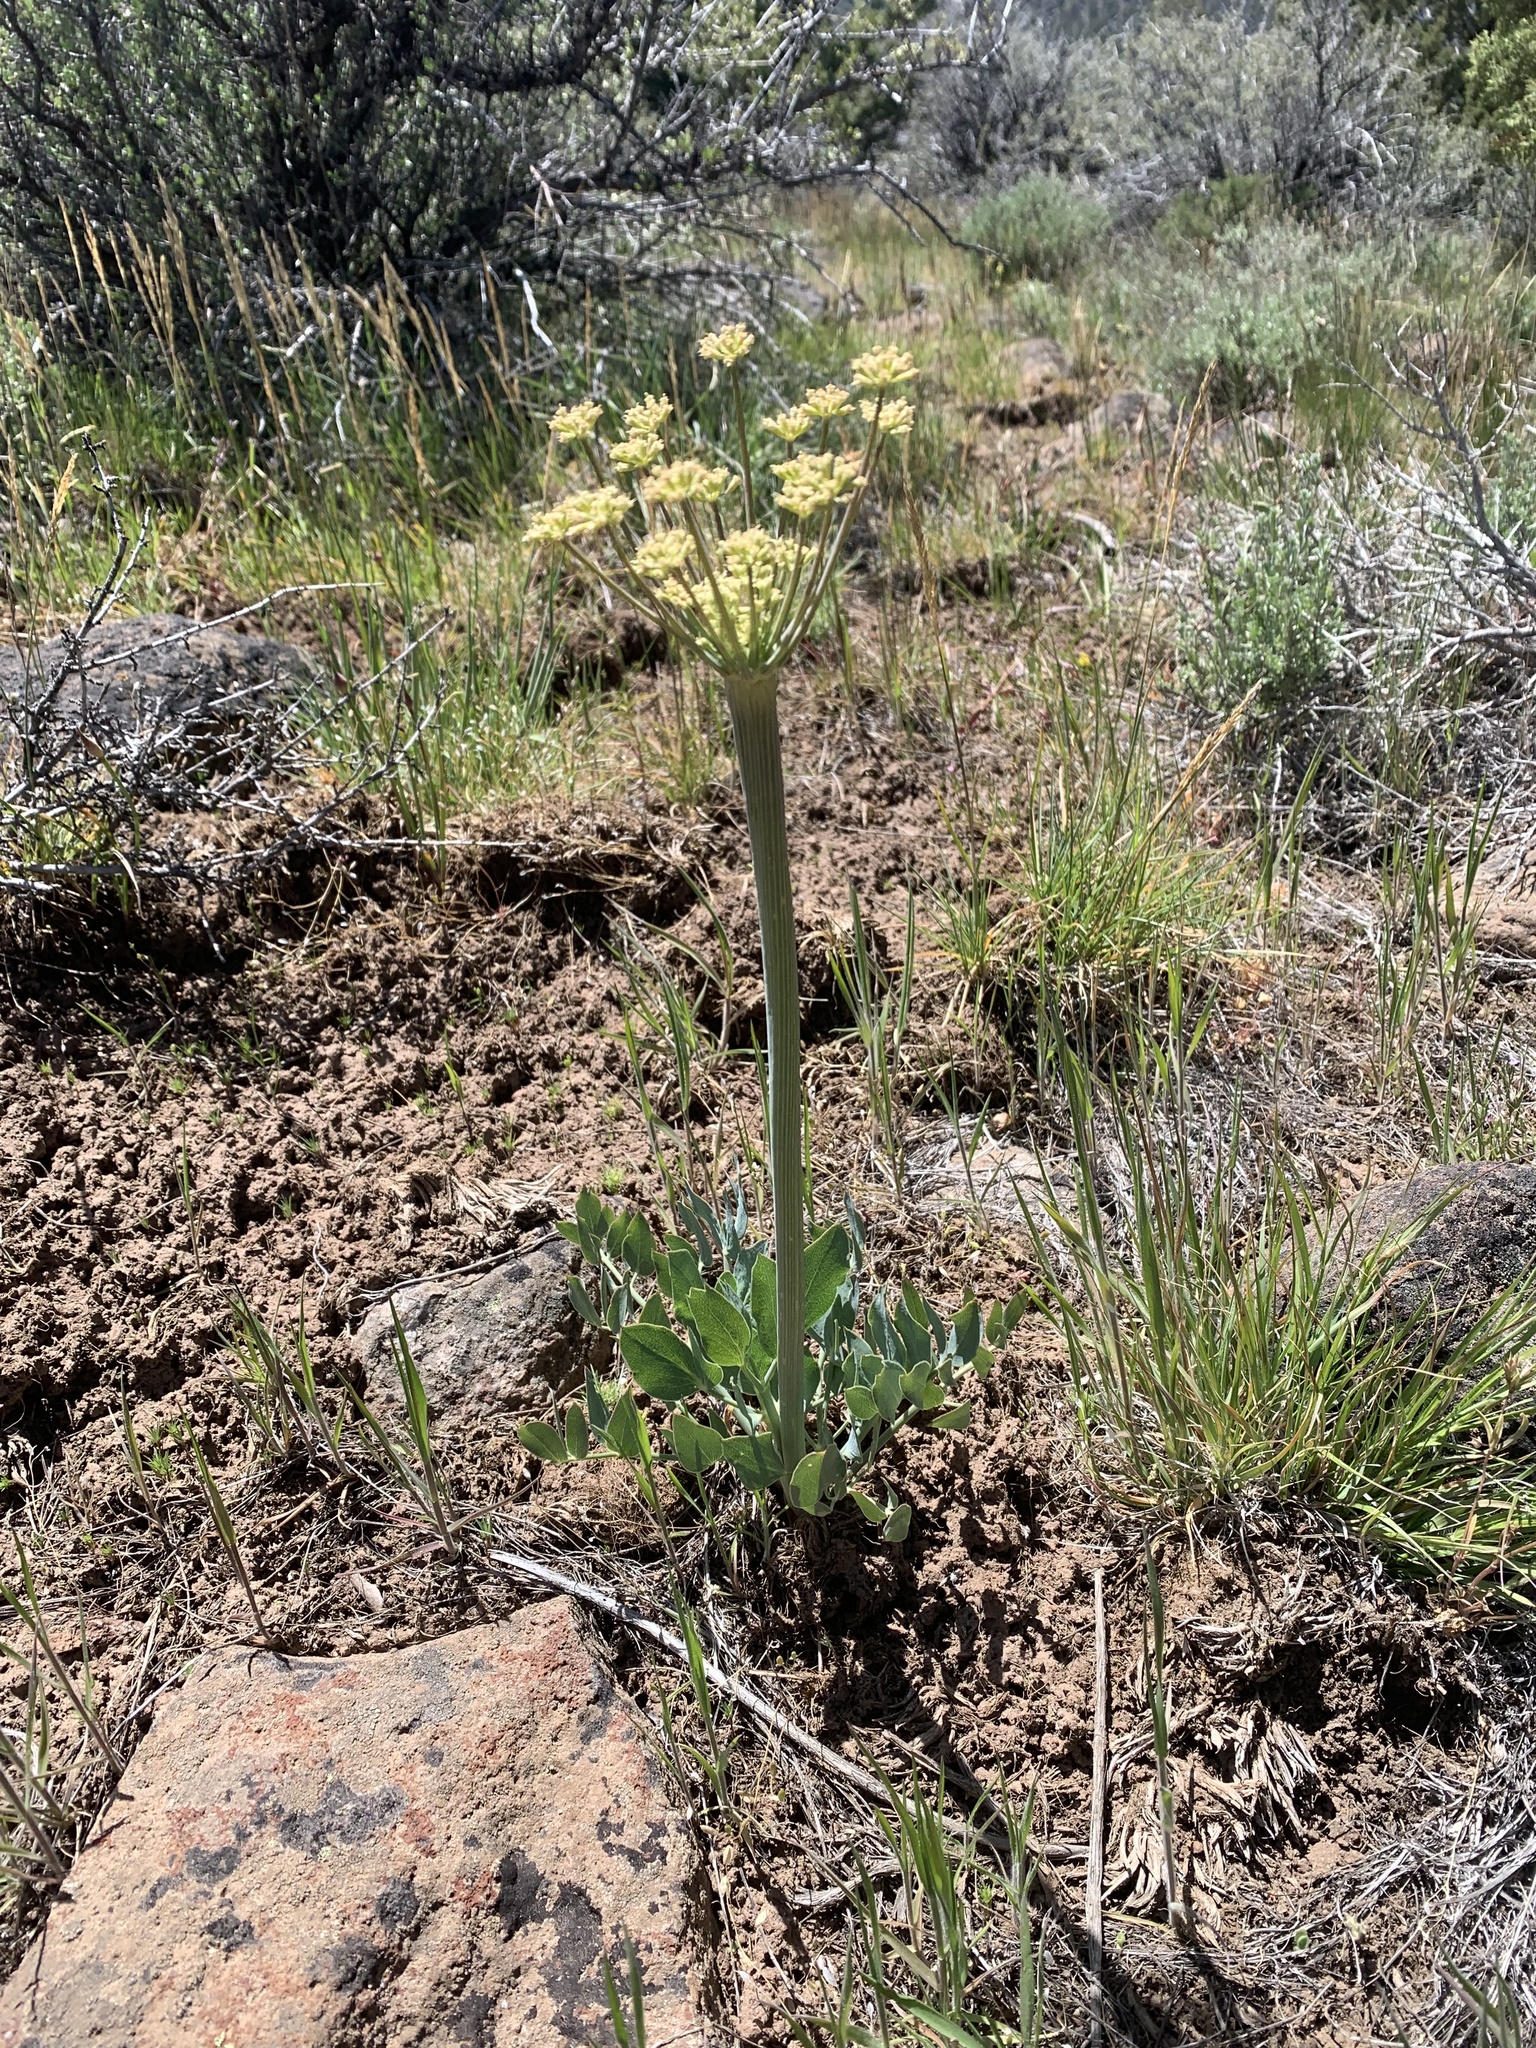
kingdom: Plantae
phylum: Tracheophyta
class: Magnoliopsida
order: Apiales
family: Apiaceae
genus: Lomatium
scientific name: Lomatium nudicaule
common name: Pestle lomatium
